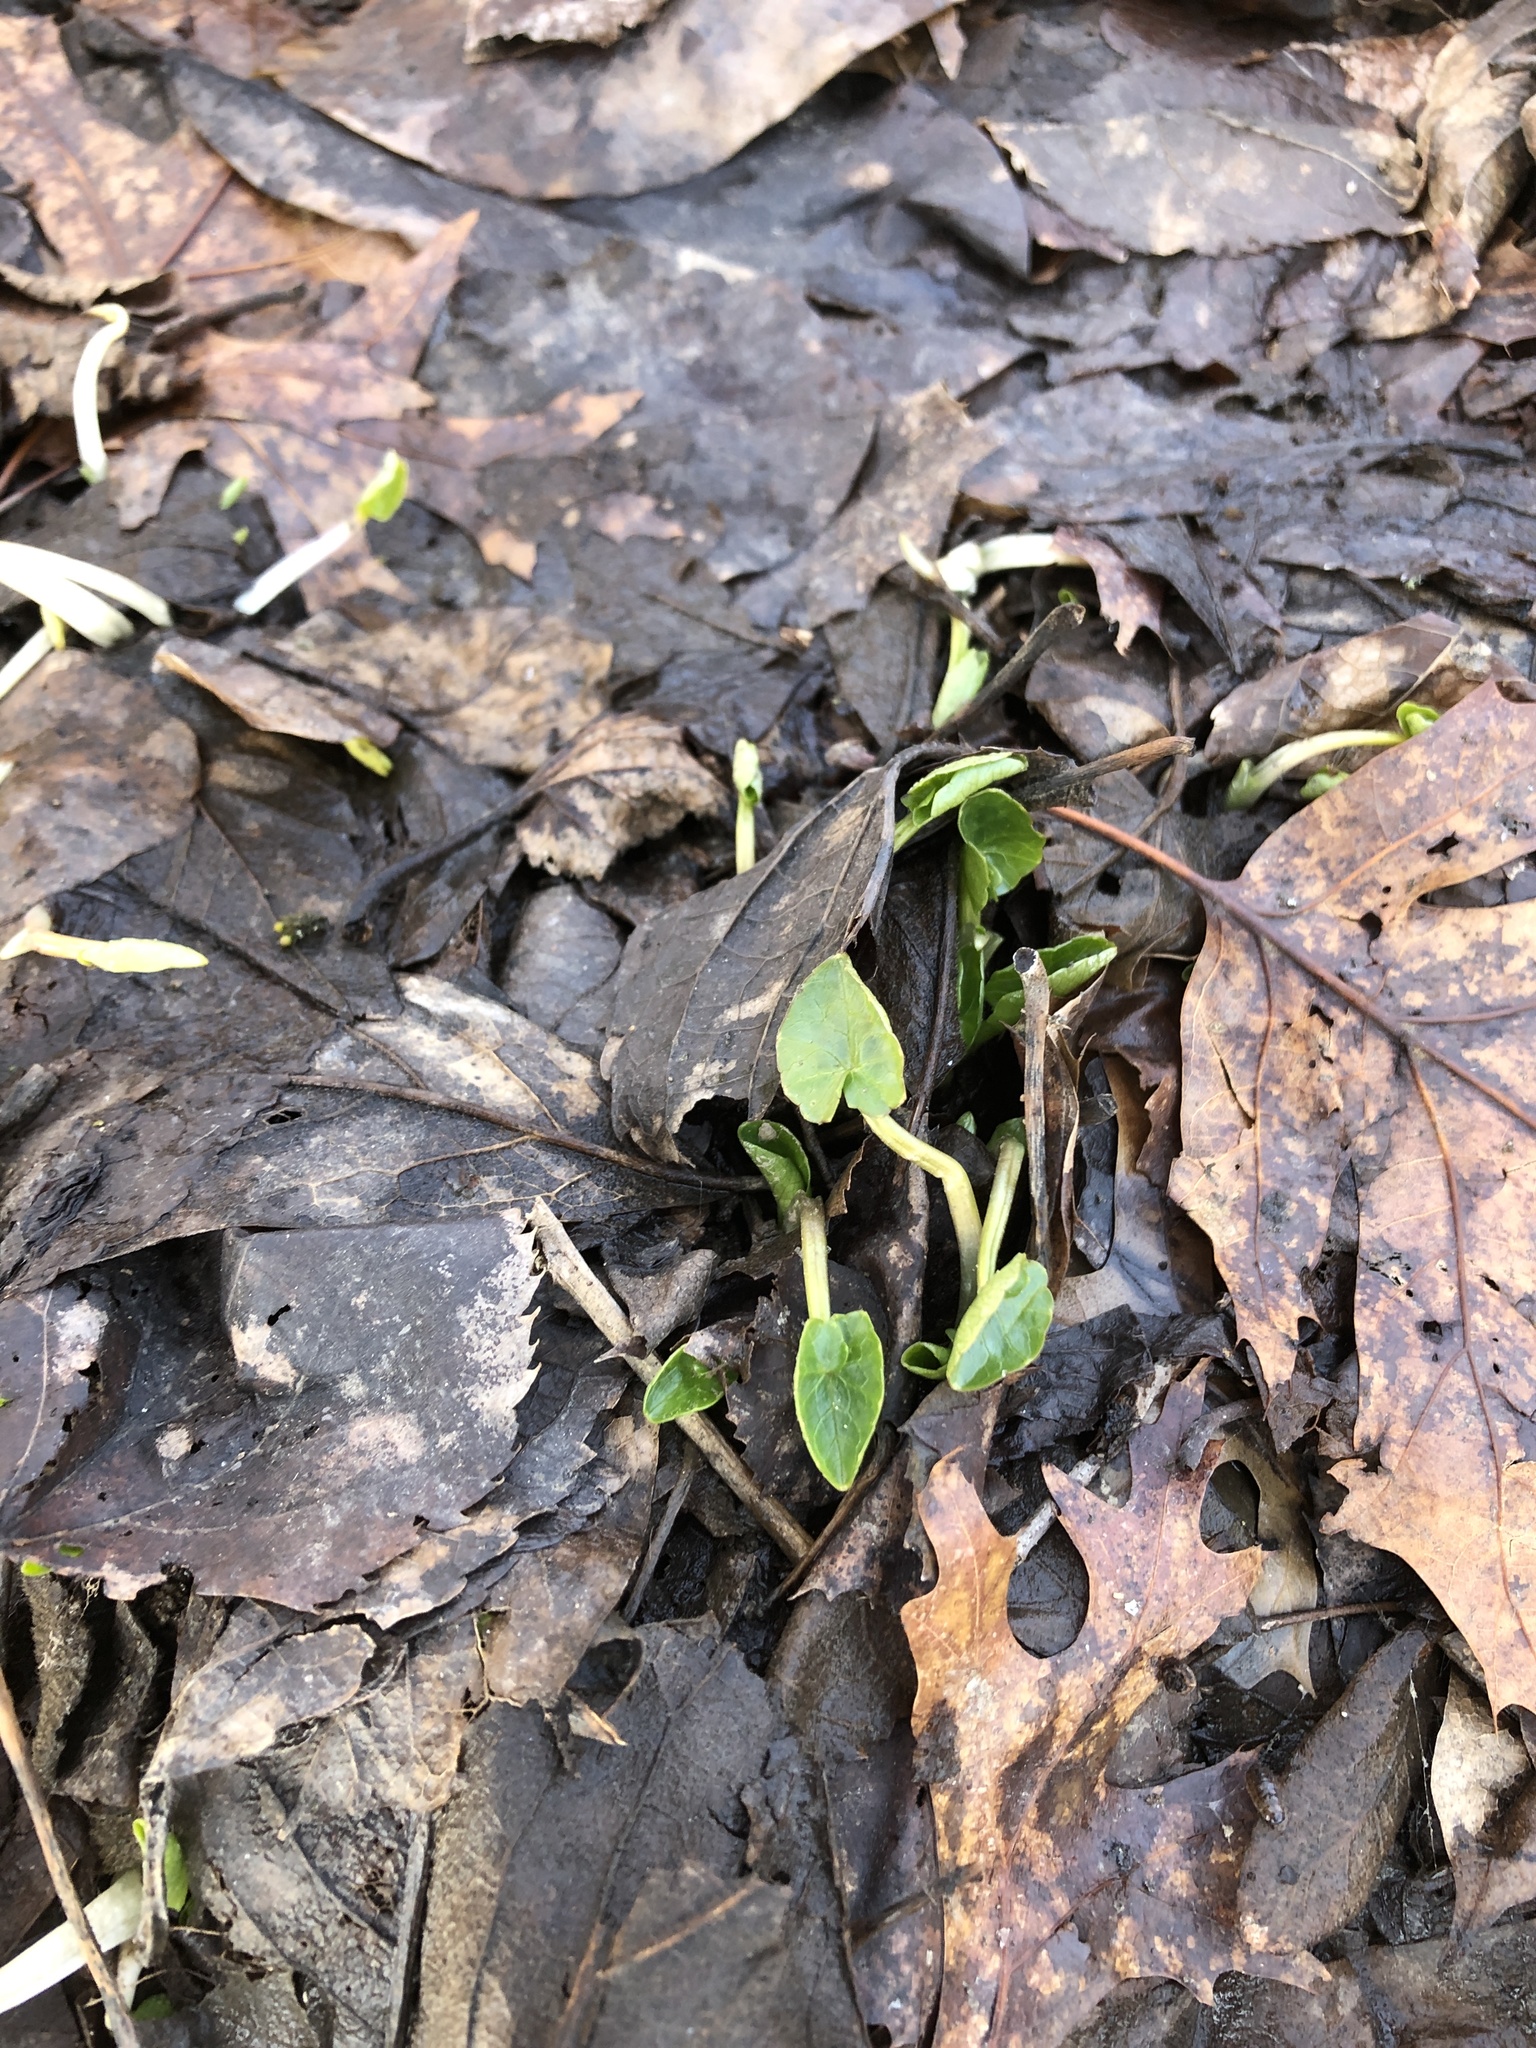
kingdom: Plantae
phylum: Tracheophyta
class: Magnoliopsida
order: Ranunculales
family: Ranunculaceae
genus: Ficaria
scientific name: Ficaria verna
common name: Lesser celandine
